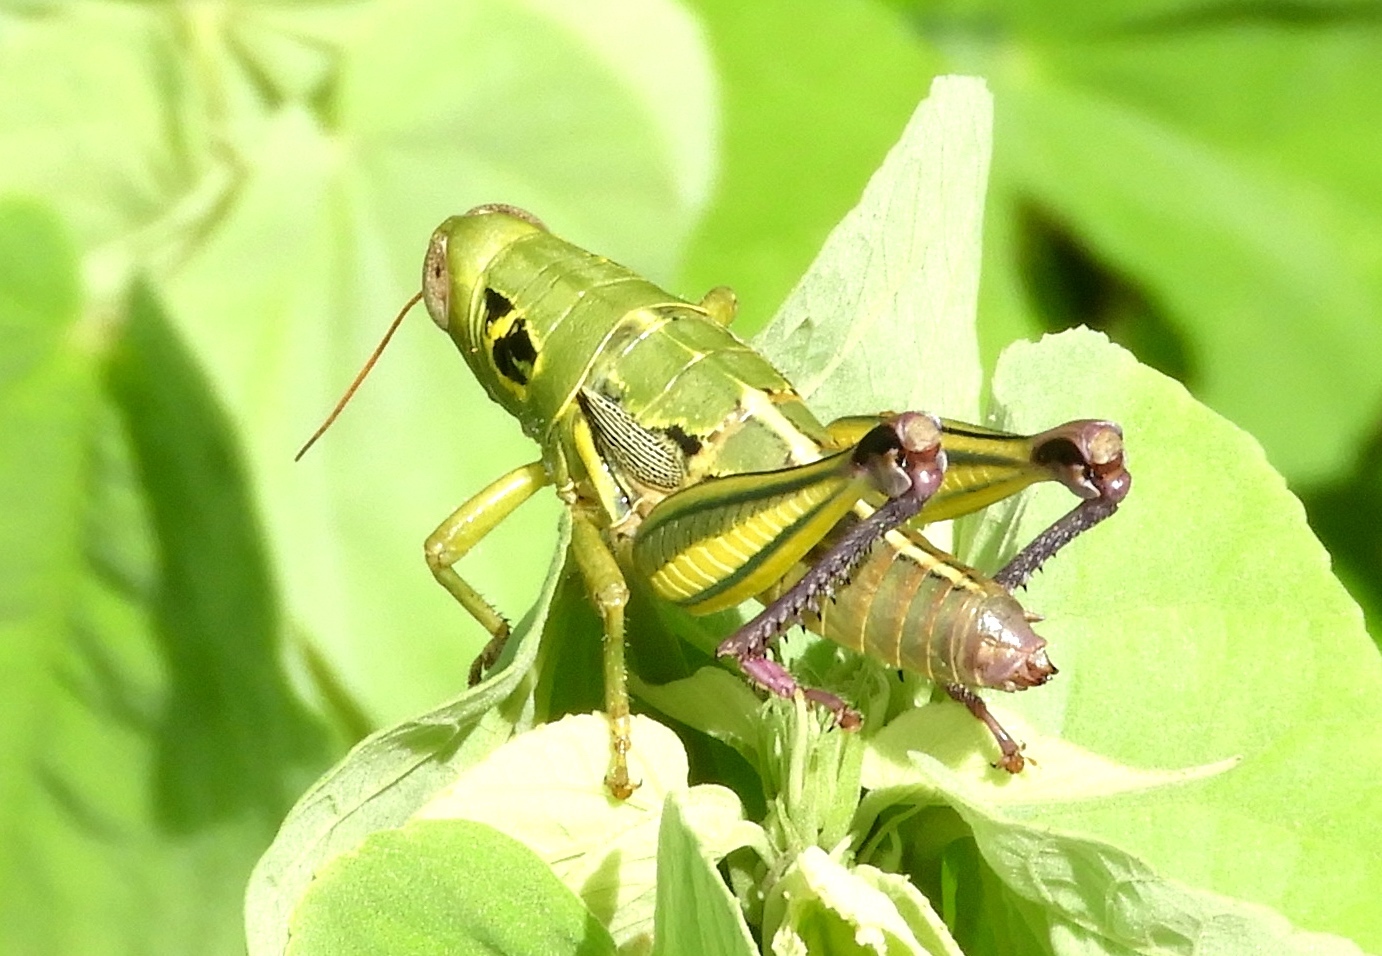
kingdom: Animalia
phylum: Arthropoda
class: Insecta
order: Orthoptera
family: Acrididae
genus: Barytettix
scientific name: Barytettix
